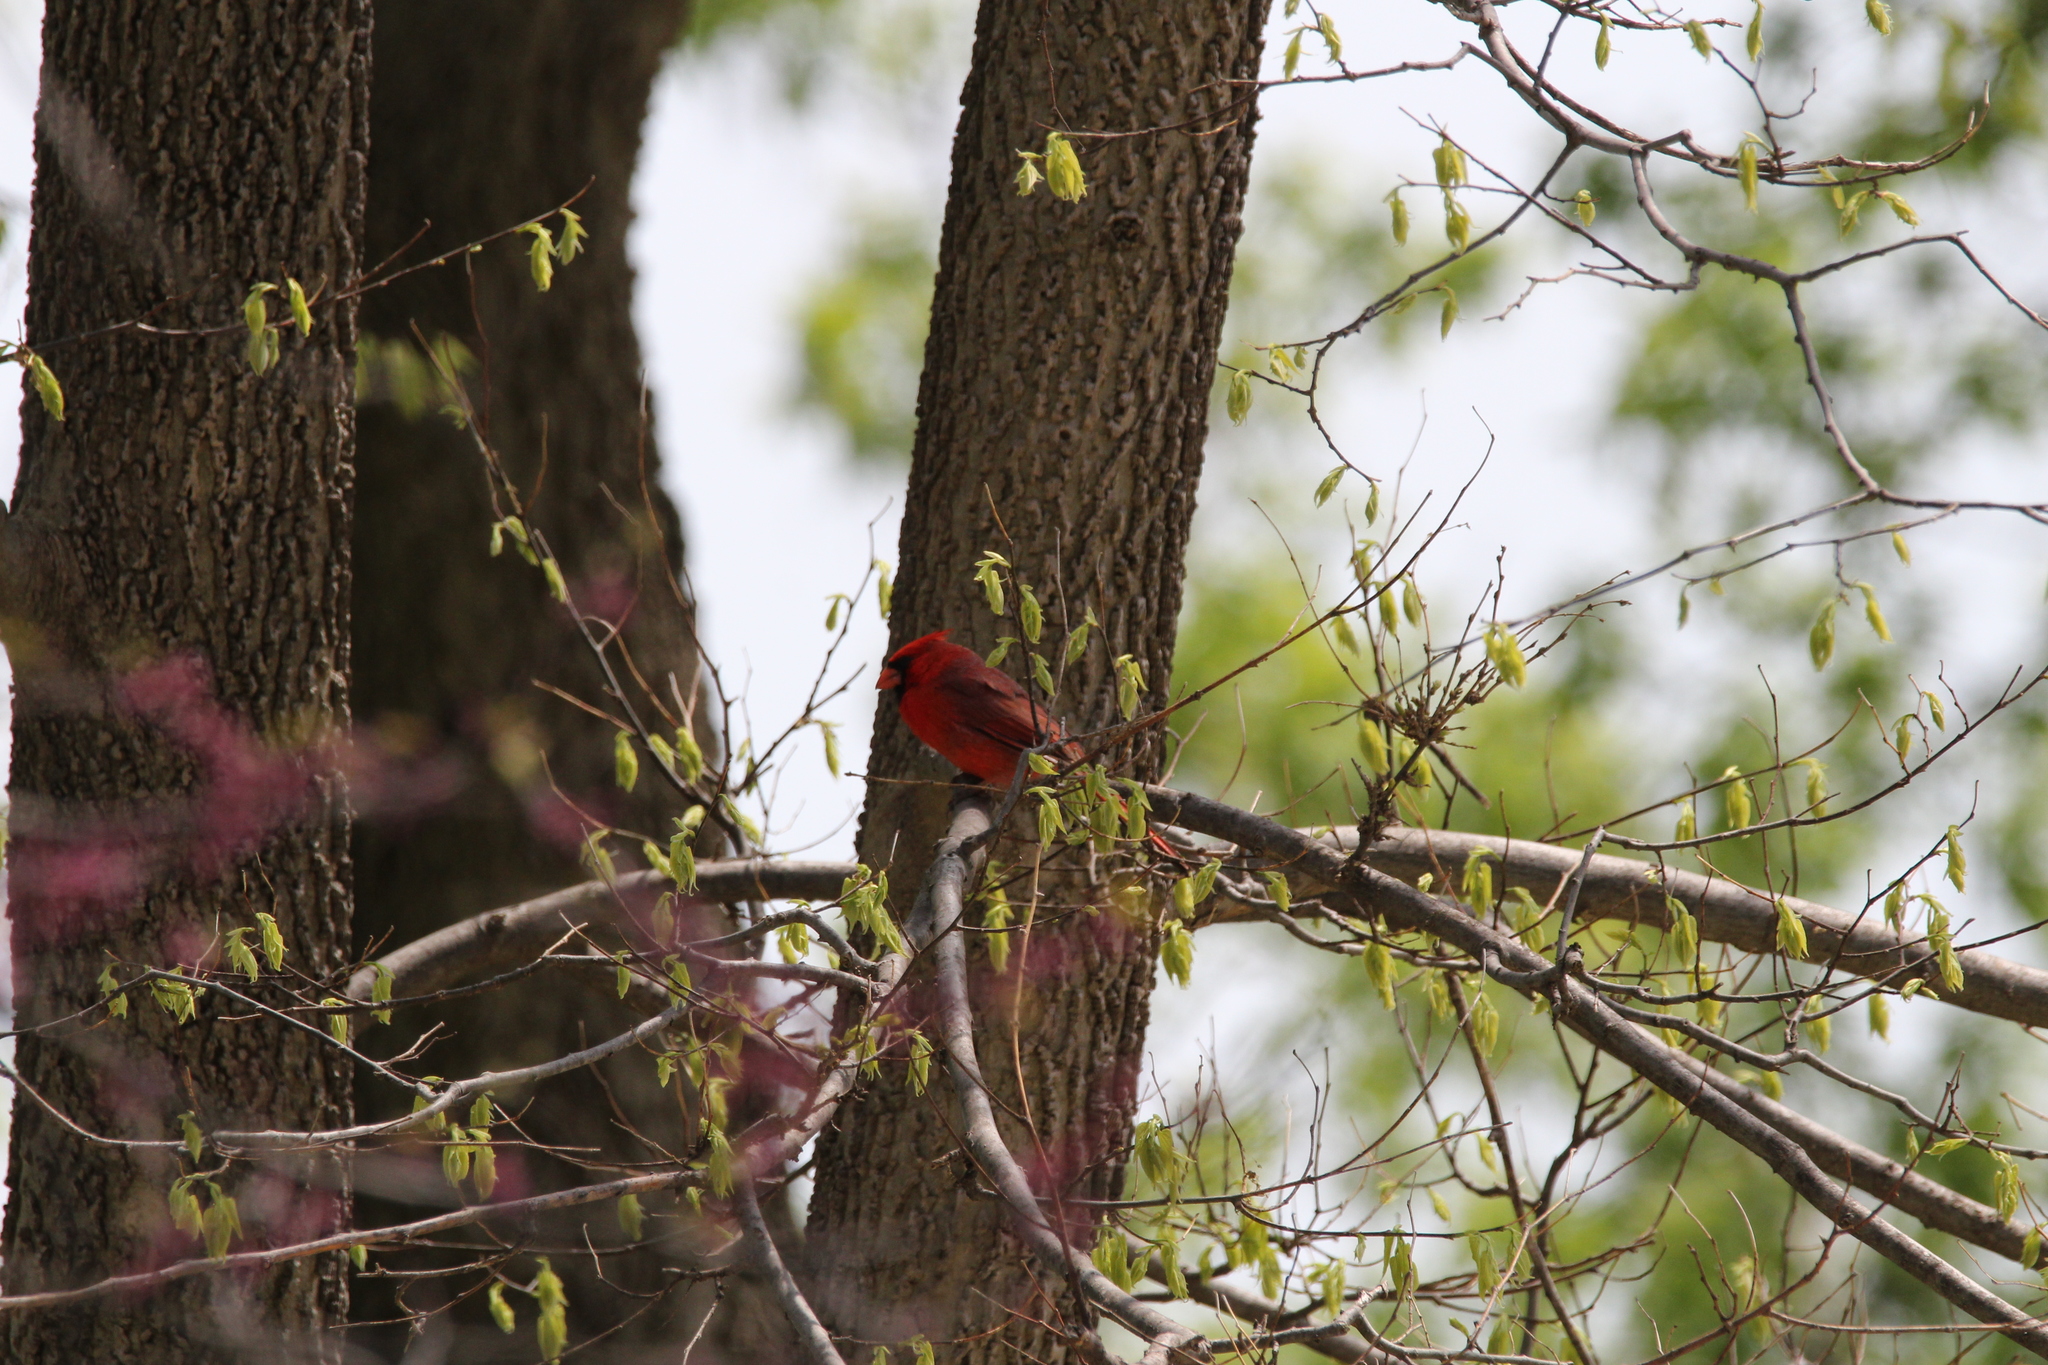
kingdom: Animalia
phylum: Chordata
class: Aves
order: Passeriformes
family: Cardinalidae
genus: Cardinalis
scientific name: Cardinalis cardinalis
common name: Northern cardinal
